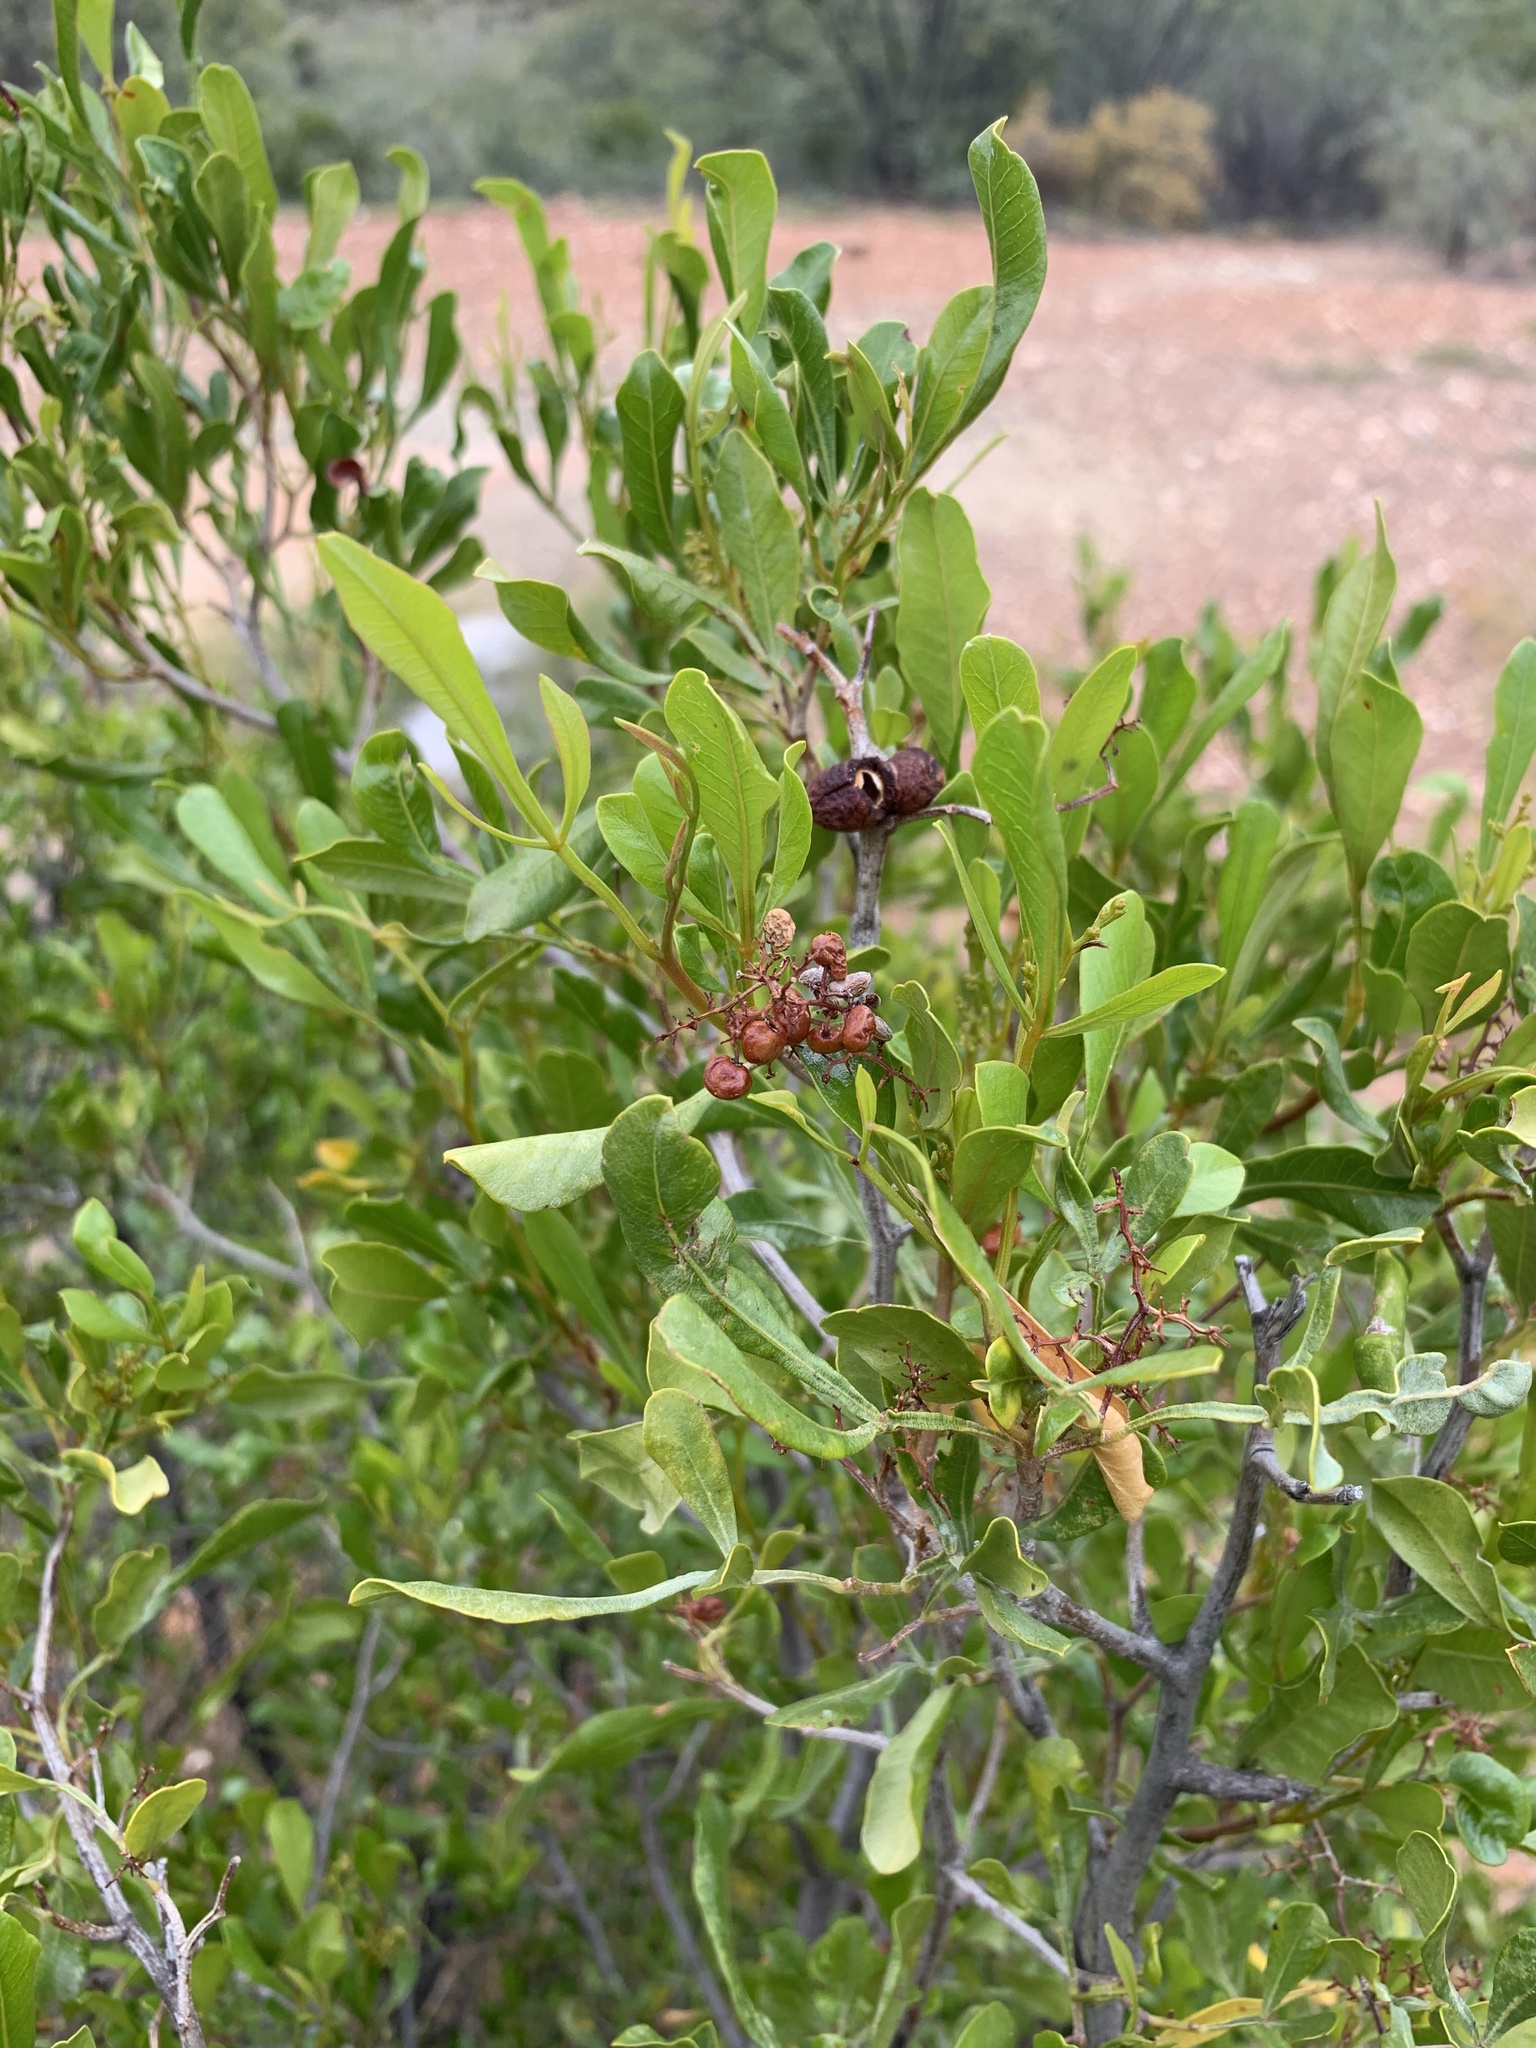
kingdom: Plantae
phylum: Tracheophyta
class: Magnoliopsida
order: Sapindales
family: Anacardiaceae
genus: Searsia
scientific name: Searsia pallens
